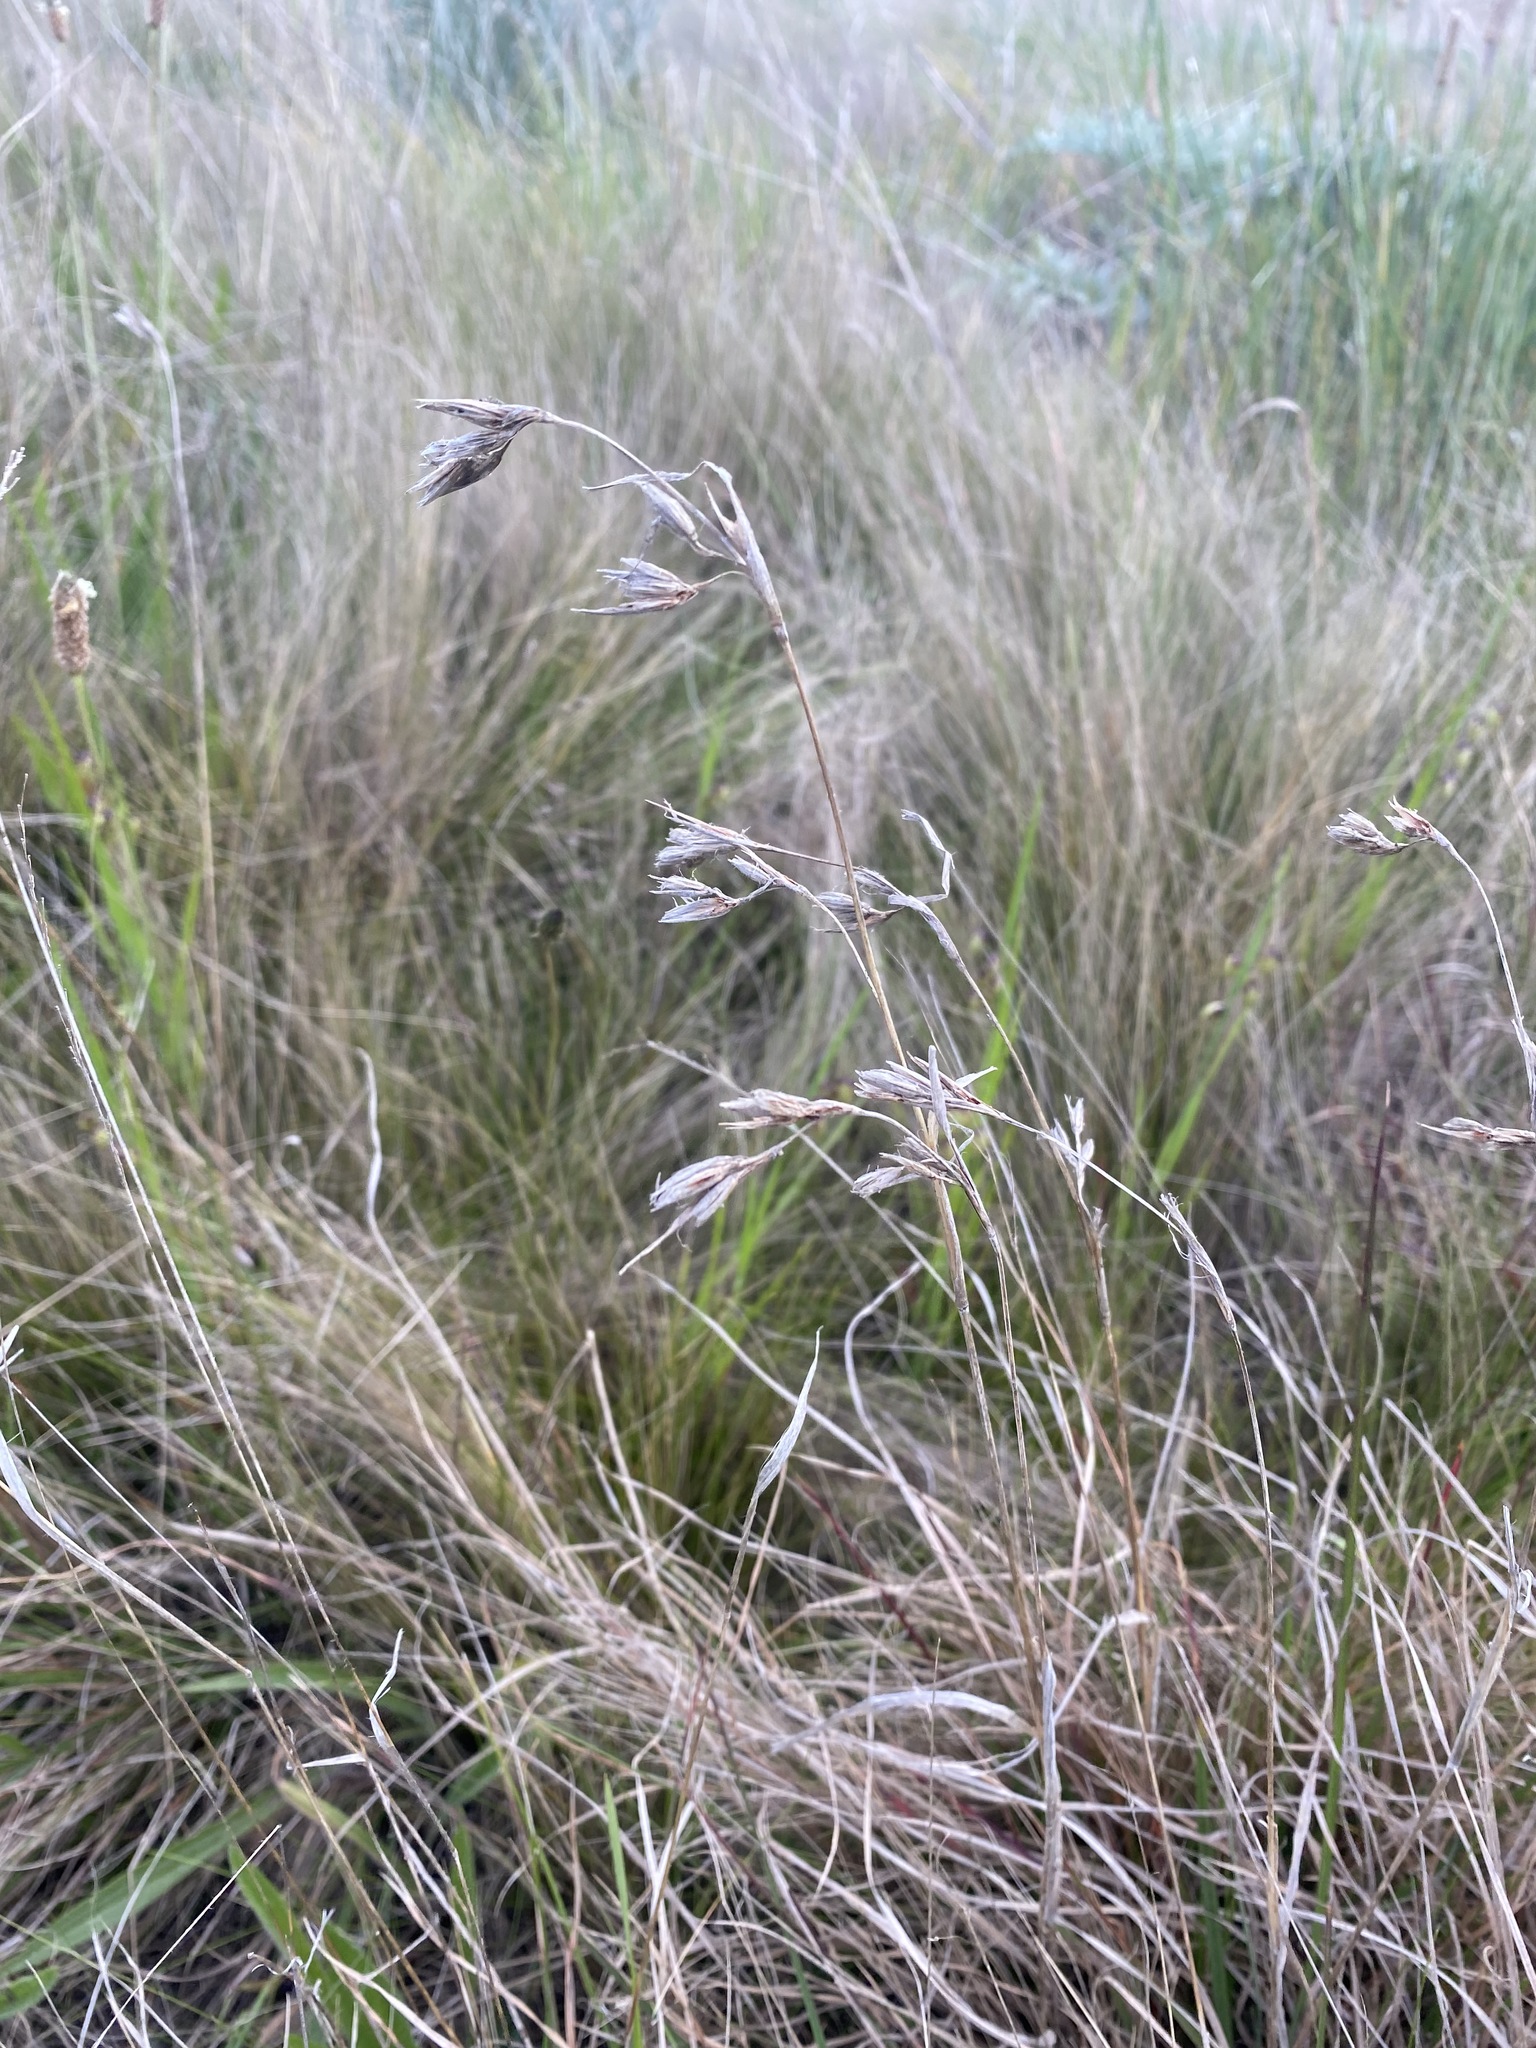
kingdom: Plantae
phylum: Tracheophyta
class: Liliopsida
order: Poales
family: Poaceae
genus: Themeda
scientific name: Themeda triandra
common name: Kangaroo grass
